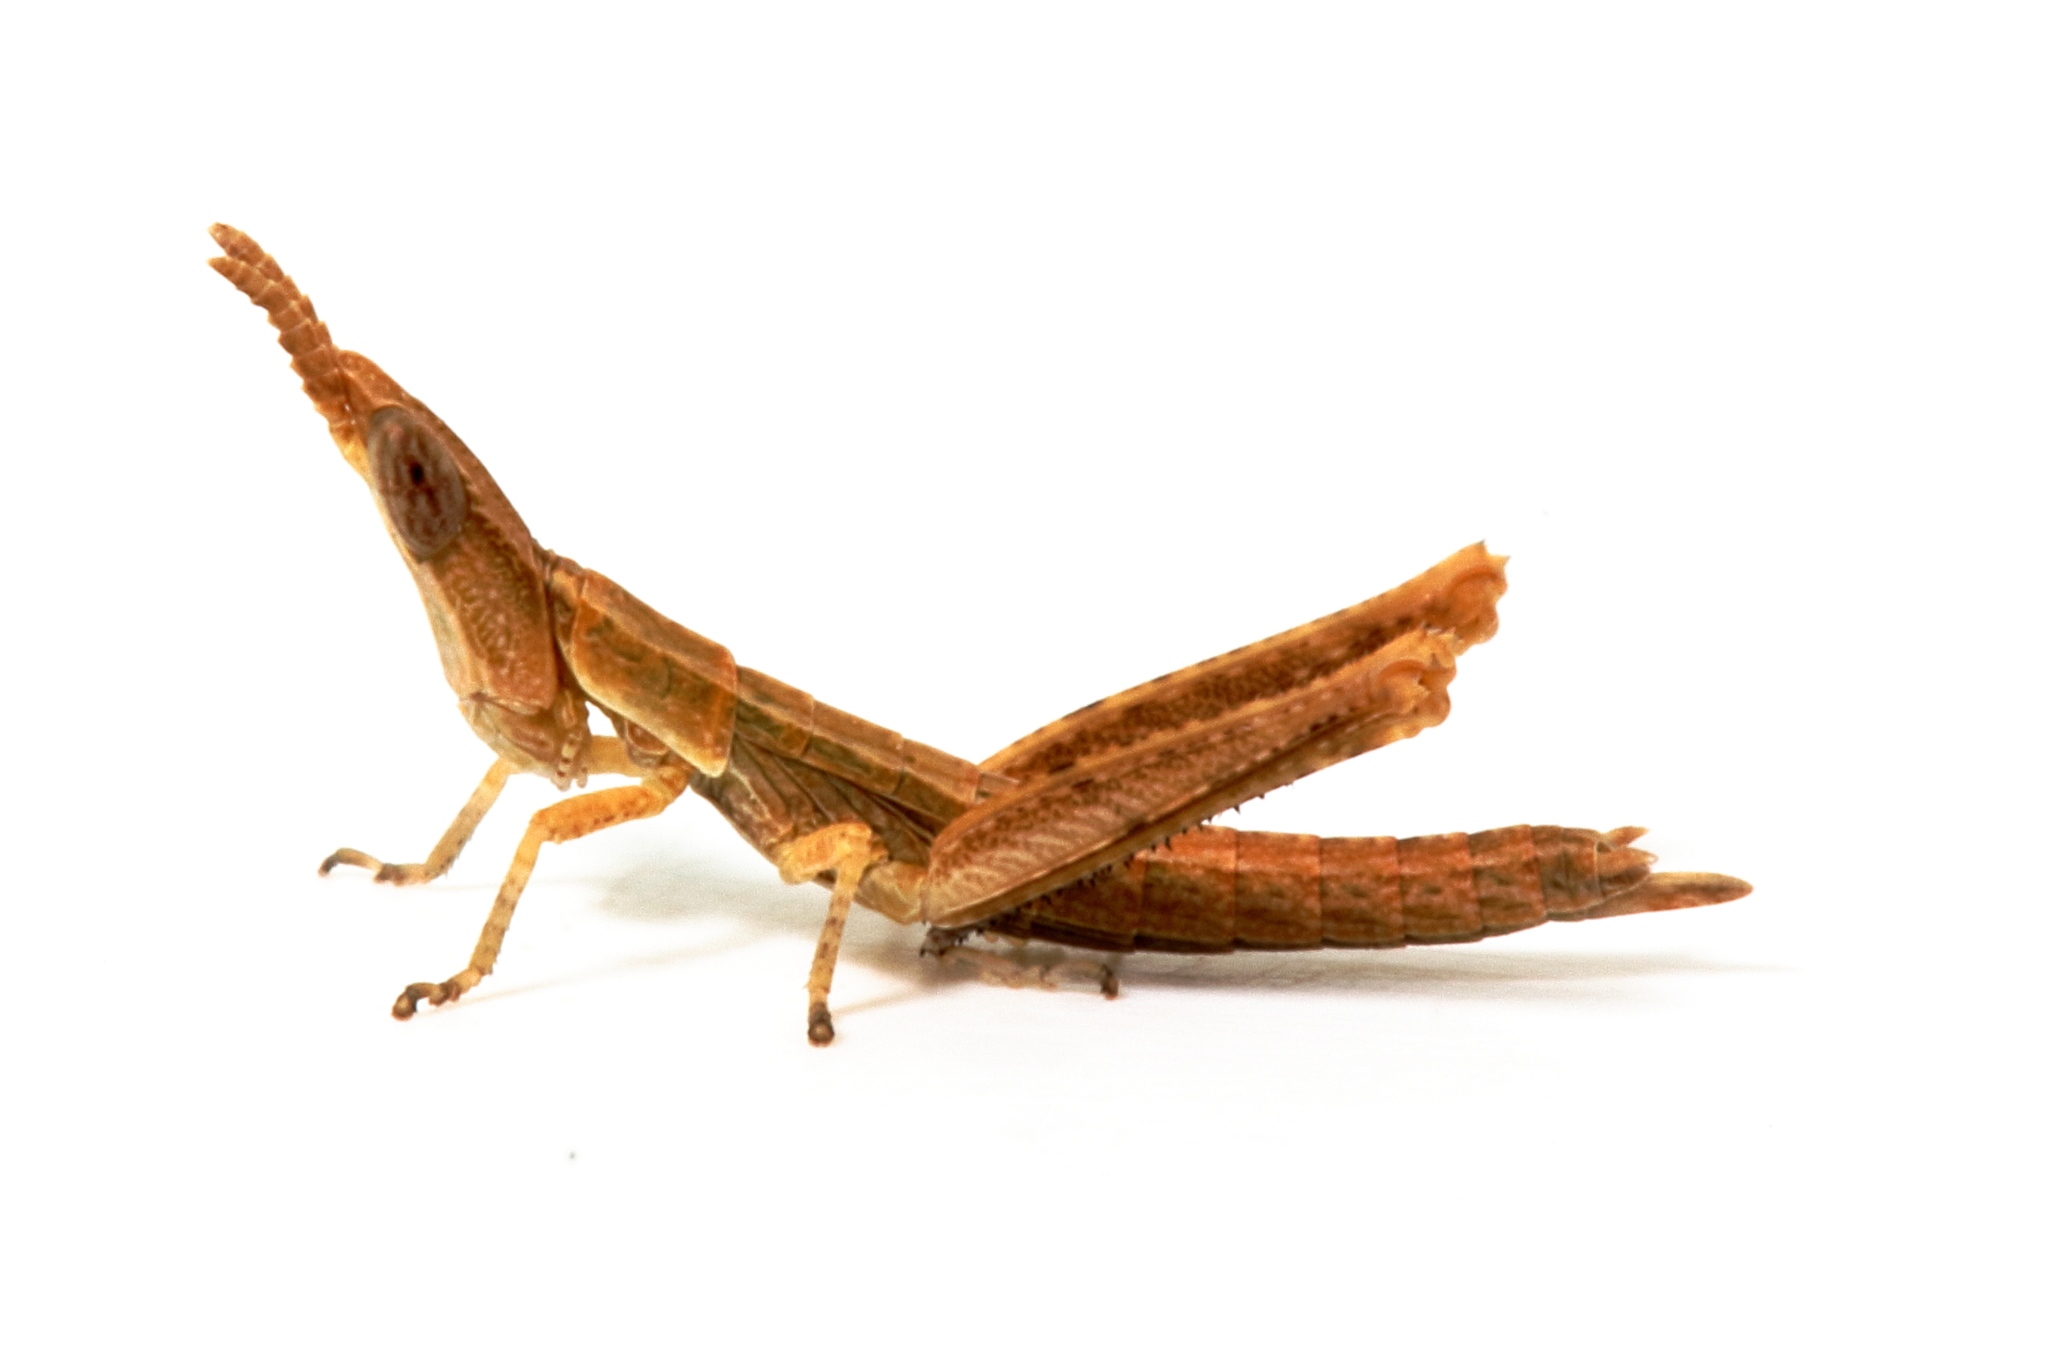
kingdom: Animalia
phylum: Arthropoda
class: Insecta
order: Orthoptera
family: Morabidae
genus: Vandiemenella
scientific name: Vandiemenella viatica
